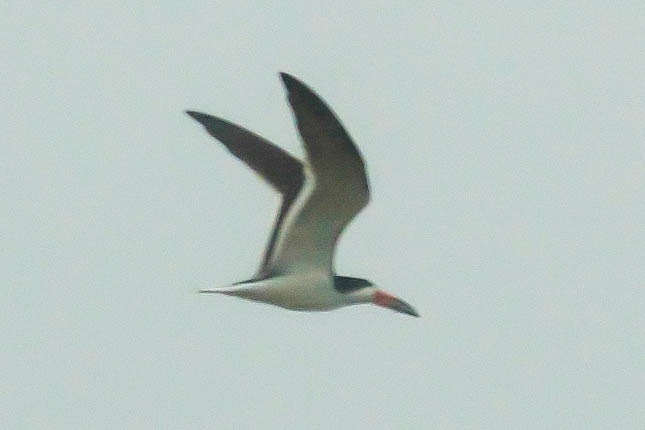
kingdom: Animalia
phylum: Chordata
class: Aves
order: Charadriiformes
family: Laridae
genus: Rynchops
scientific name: Rynchops niger
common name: Black skimmer
